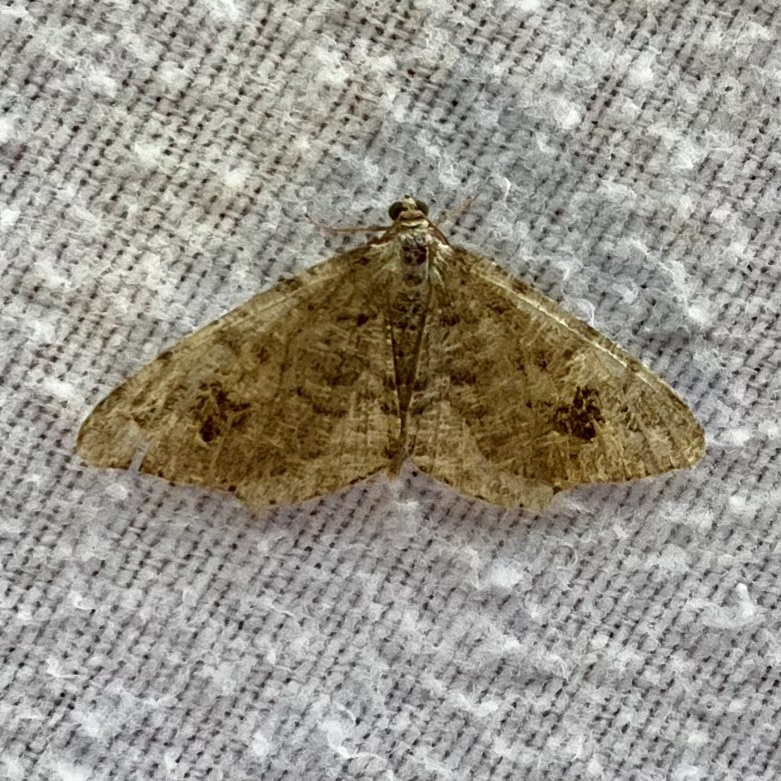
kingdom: Animalia
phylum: Arthropoda
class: Insecta
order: Lepidoptera
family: Geometridae
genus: Macaria
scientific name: Macaria signaria
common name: Dusky peacock
